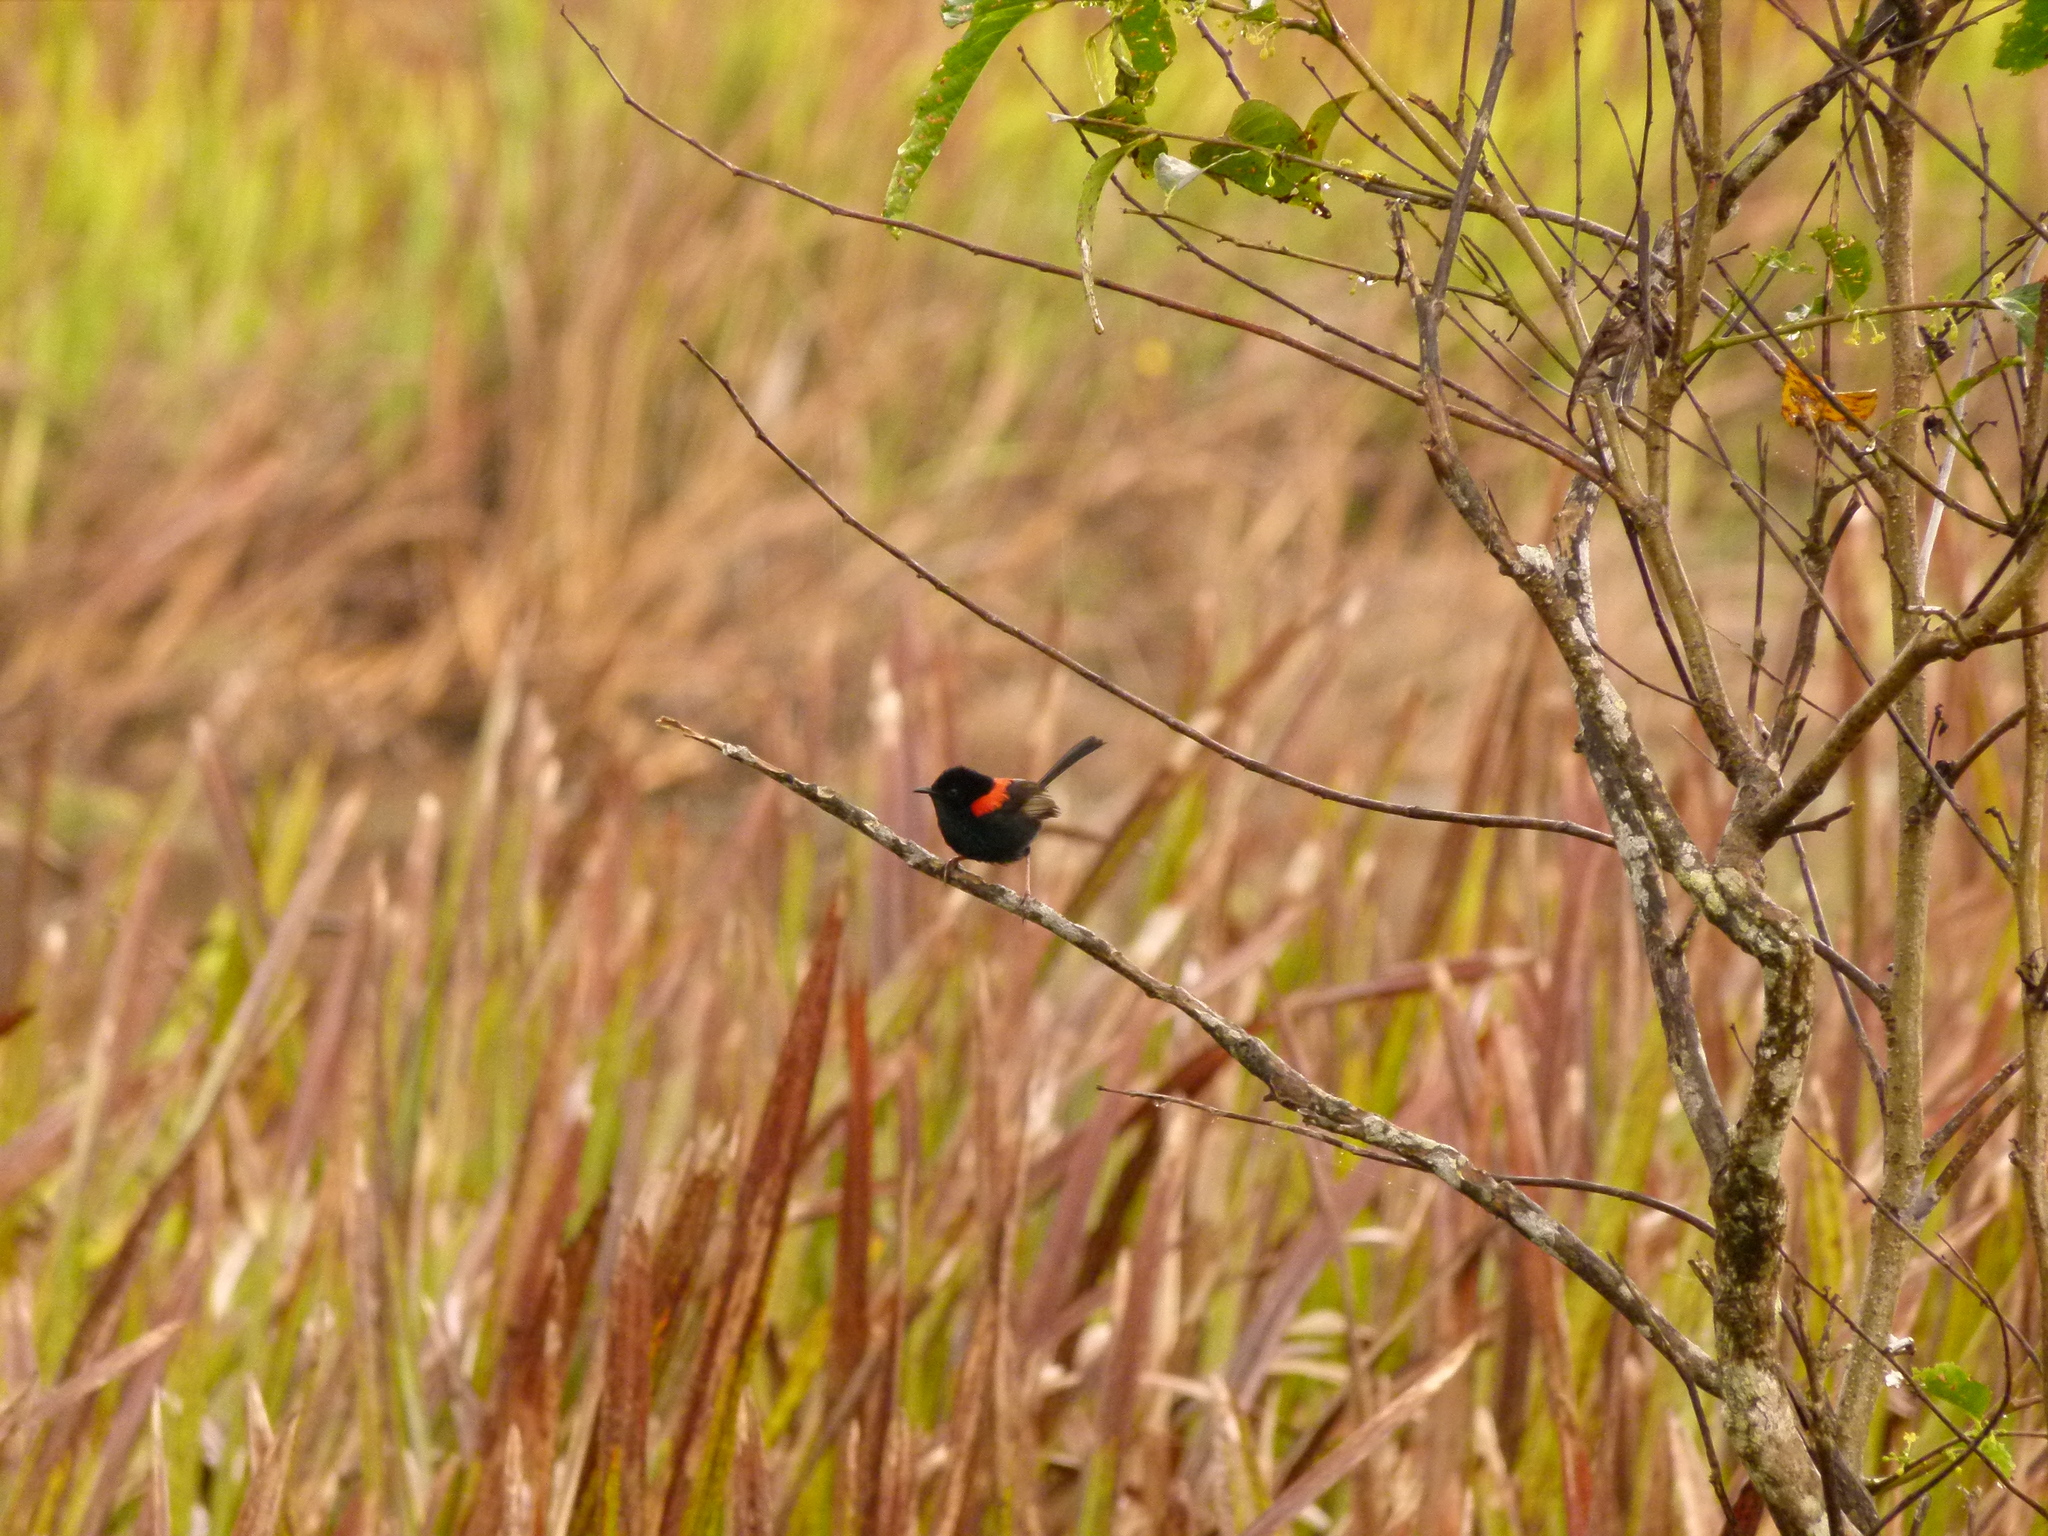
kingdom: Animalia
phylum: Chordata
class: Aves
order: Passeriformes
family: Maluridae
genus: Malurus
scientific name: Malurus melanocephalus
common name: Red-backed fairywren
